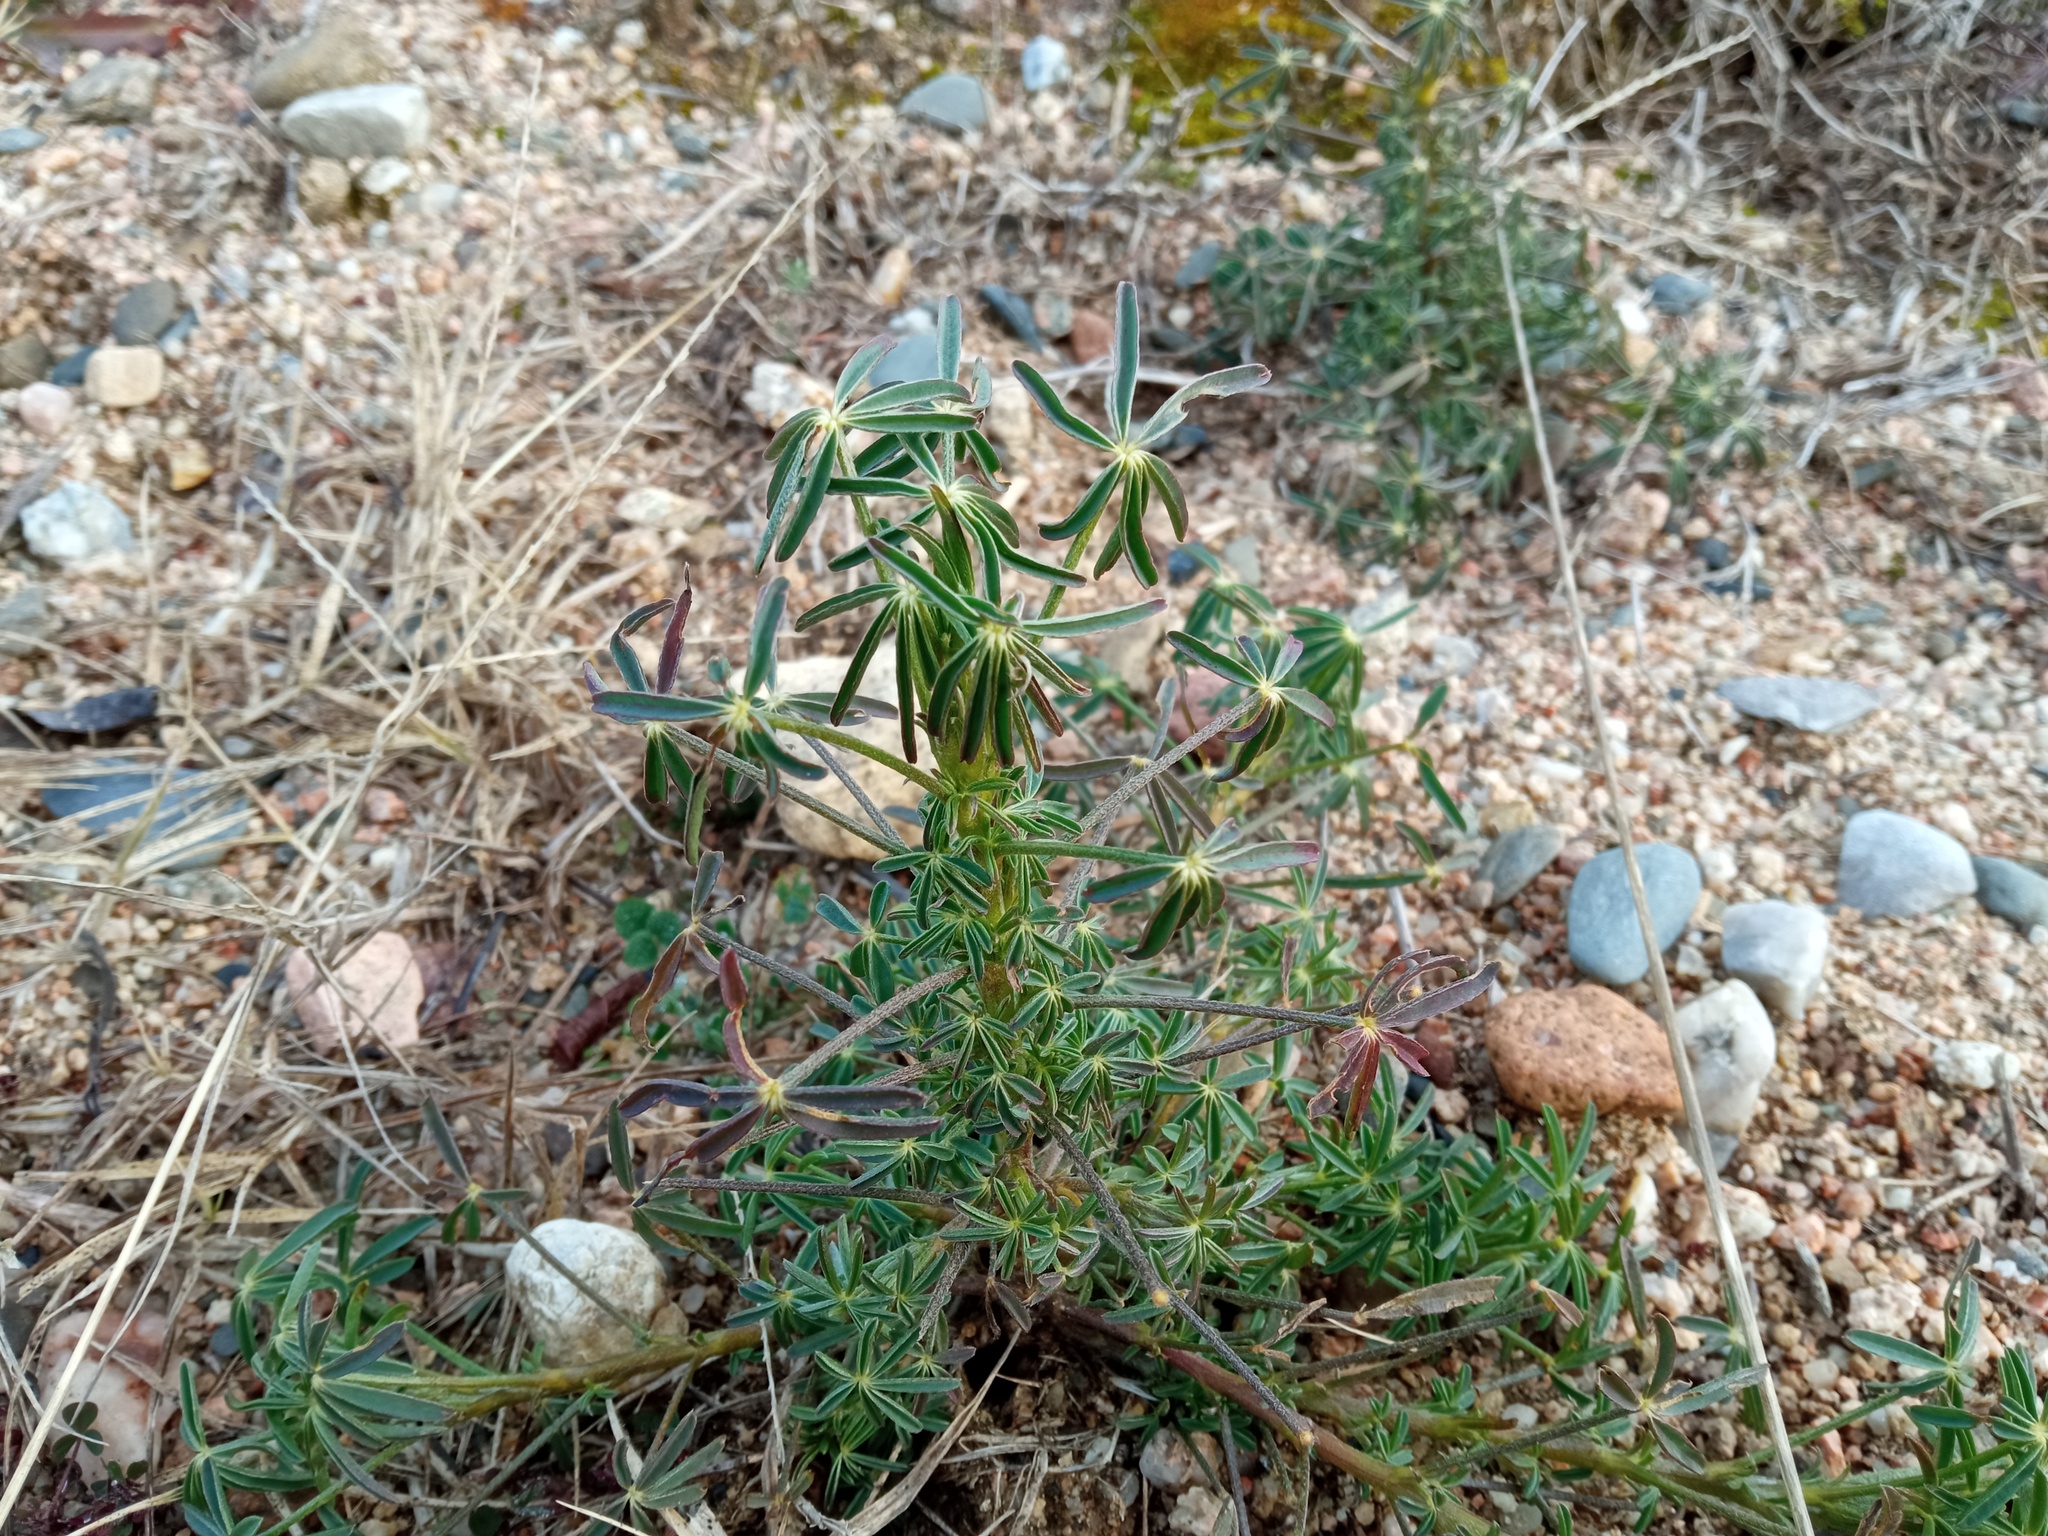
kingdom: Plantae
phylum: Tracheophyta
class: Magnoliopsida
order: Fabales
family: Fabaceae
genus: Lupinus
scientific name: Lupinus angustifolius
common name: Narrow-leaved lupin
